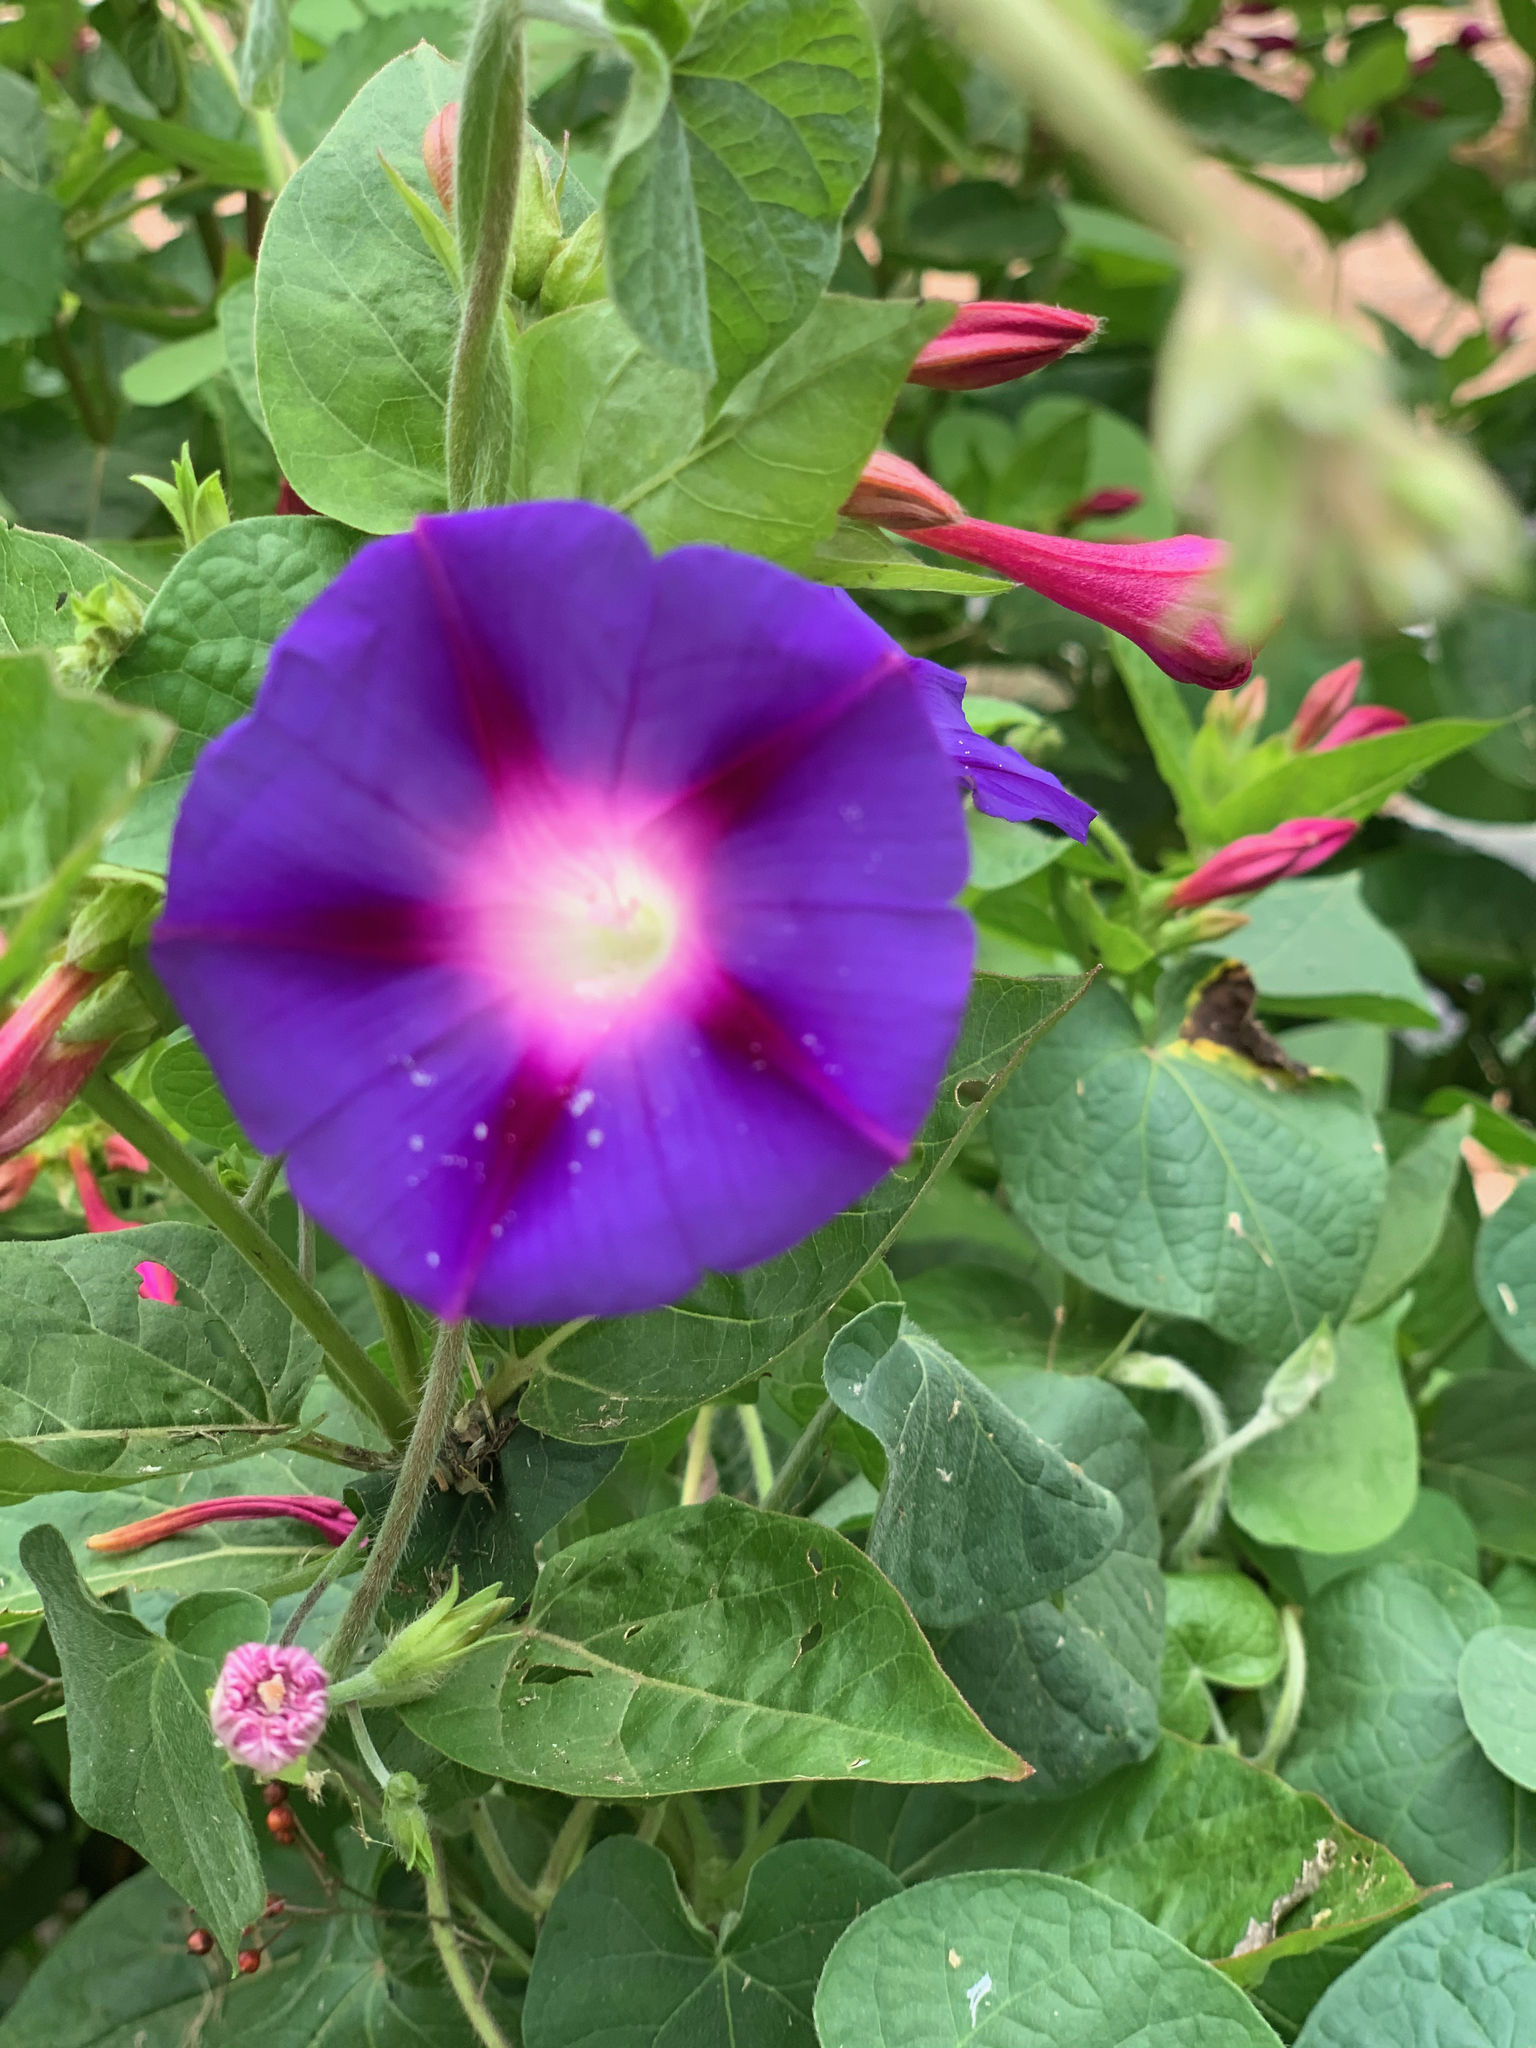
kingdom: Plantae
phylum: Tracheophyta
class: Magnoliopsida
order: Solanales
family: Convolvulaceae
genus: Ipomoea
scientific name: Ipomoea purpurea
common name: Common morning-glory
